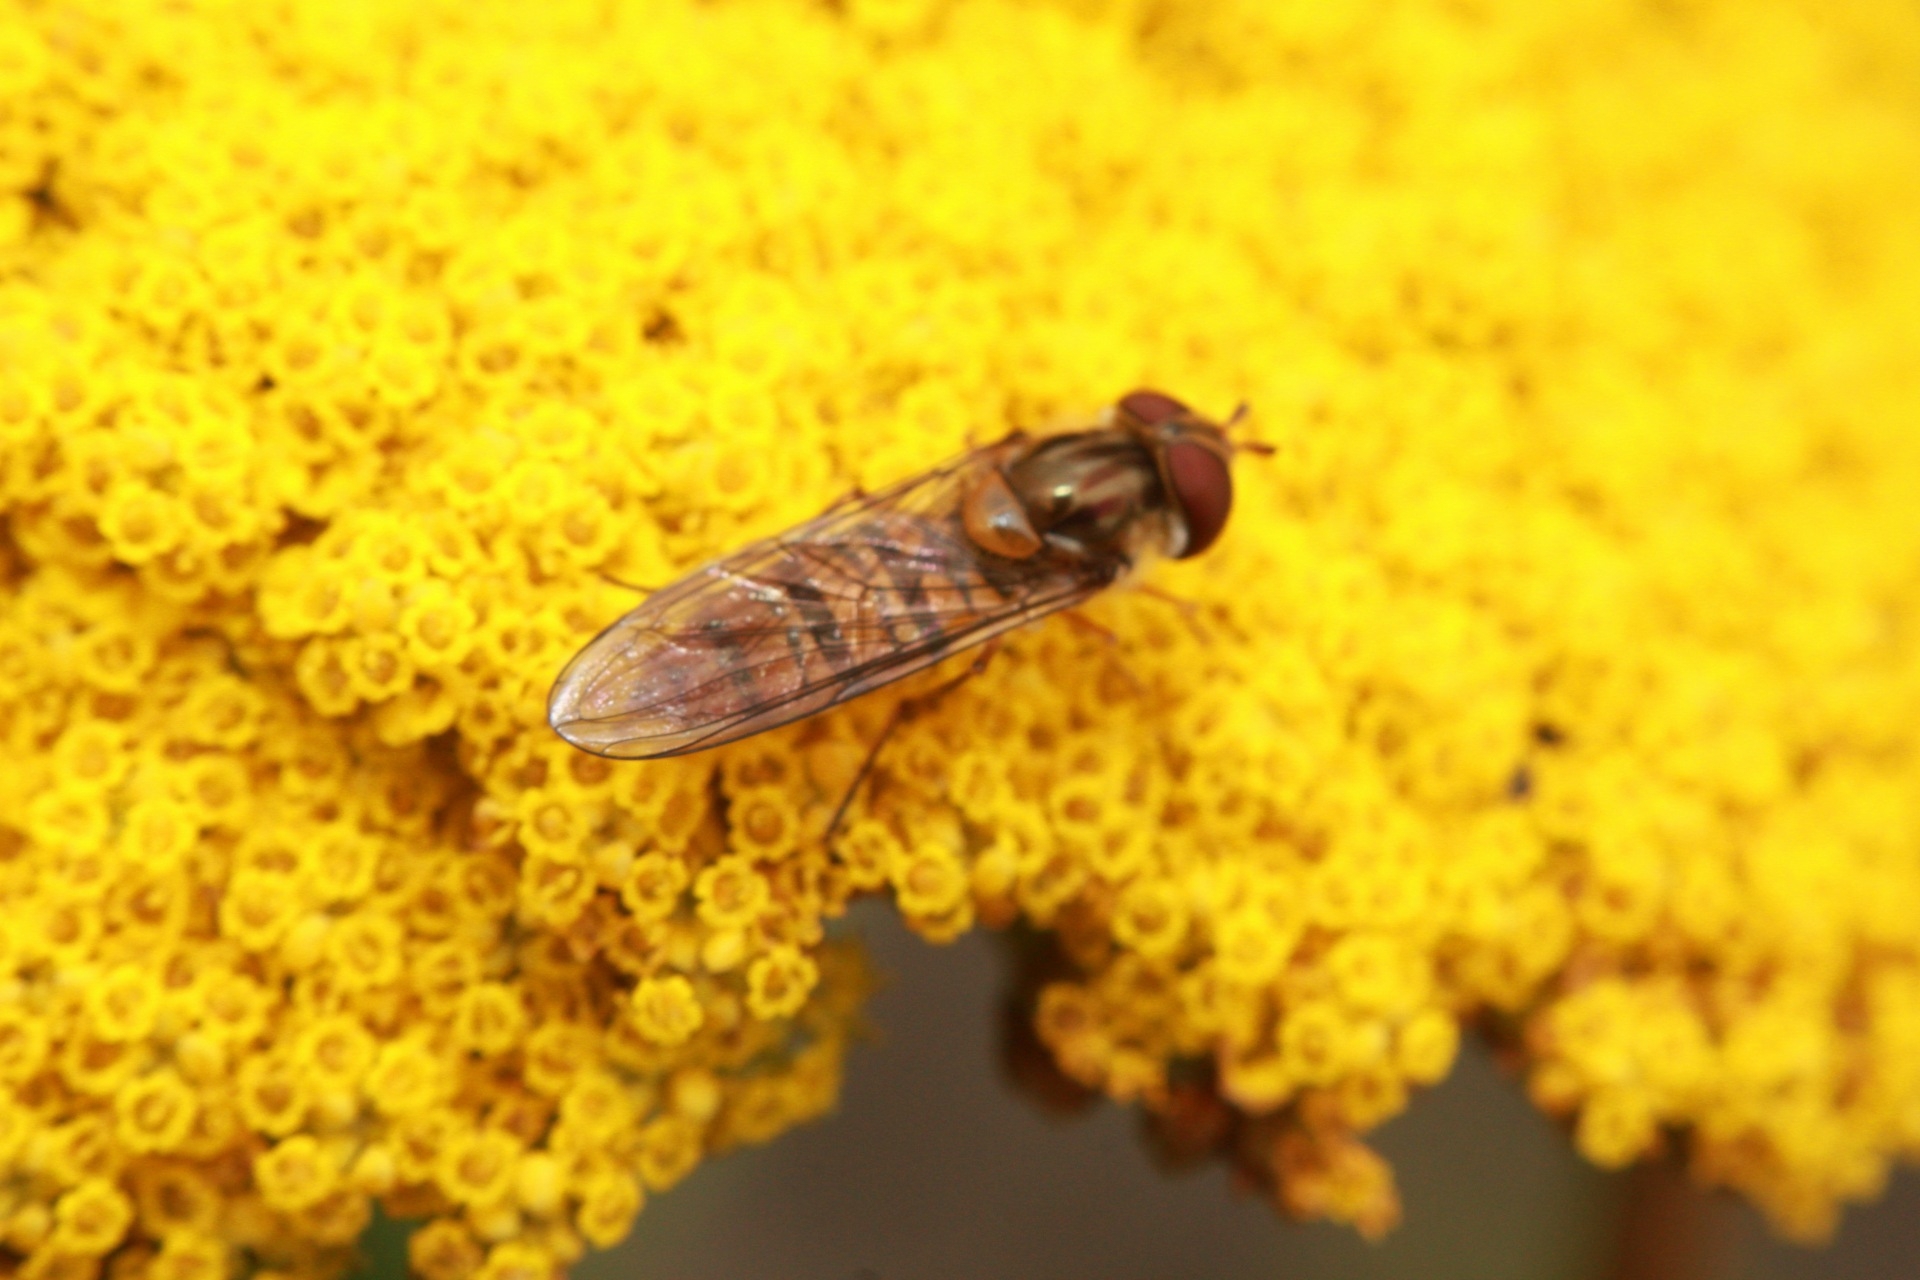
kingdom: Animalia
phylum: Arthropoda
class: Insecta
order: Diptera
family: Syrphidae
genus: Episyrphus
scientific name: Episyrphus balteatus
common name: Marmalade hoverfly
